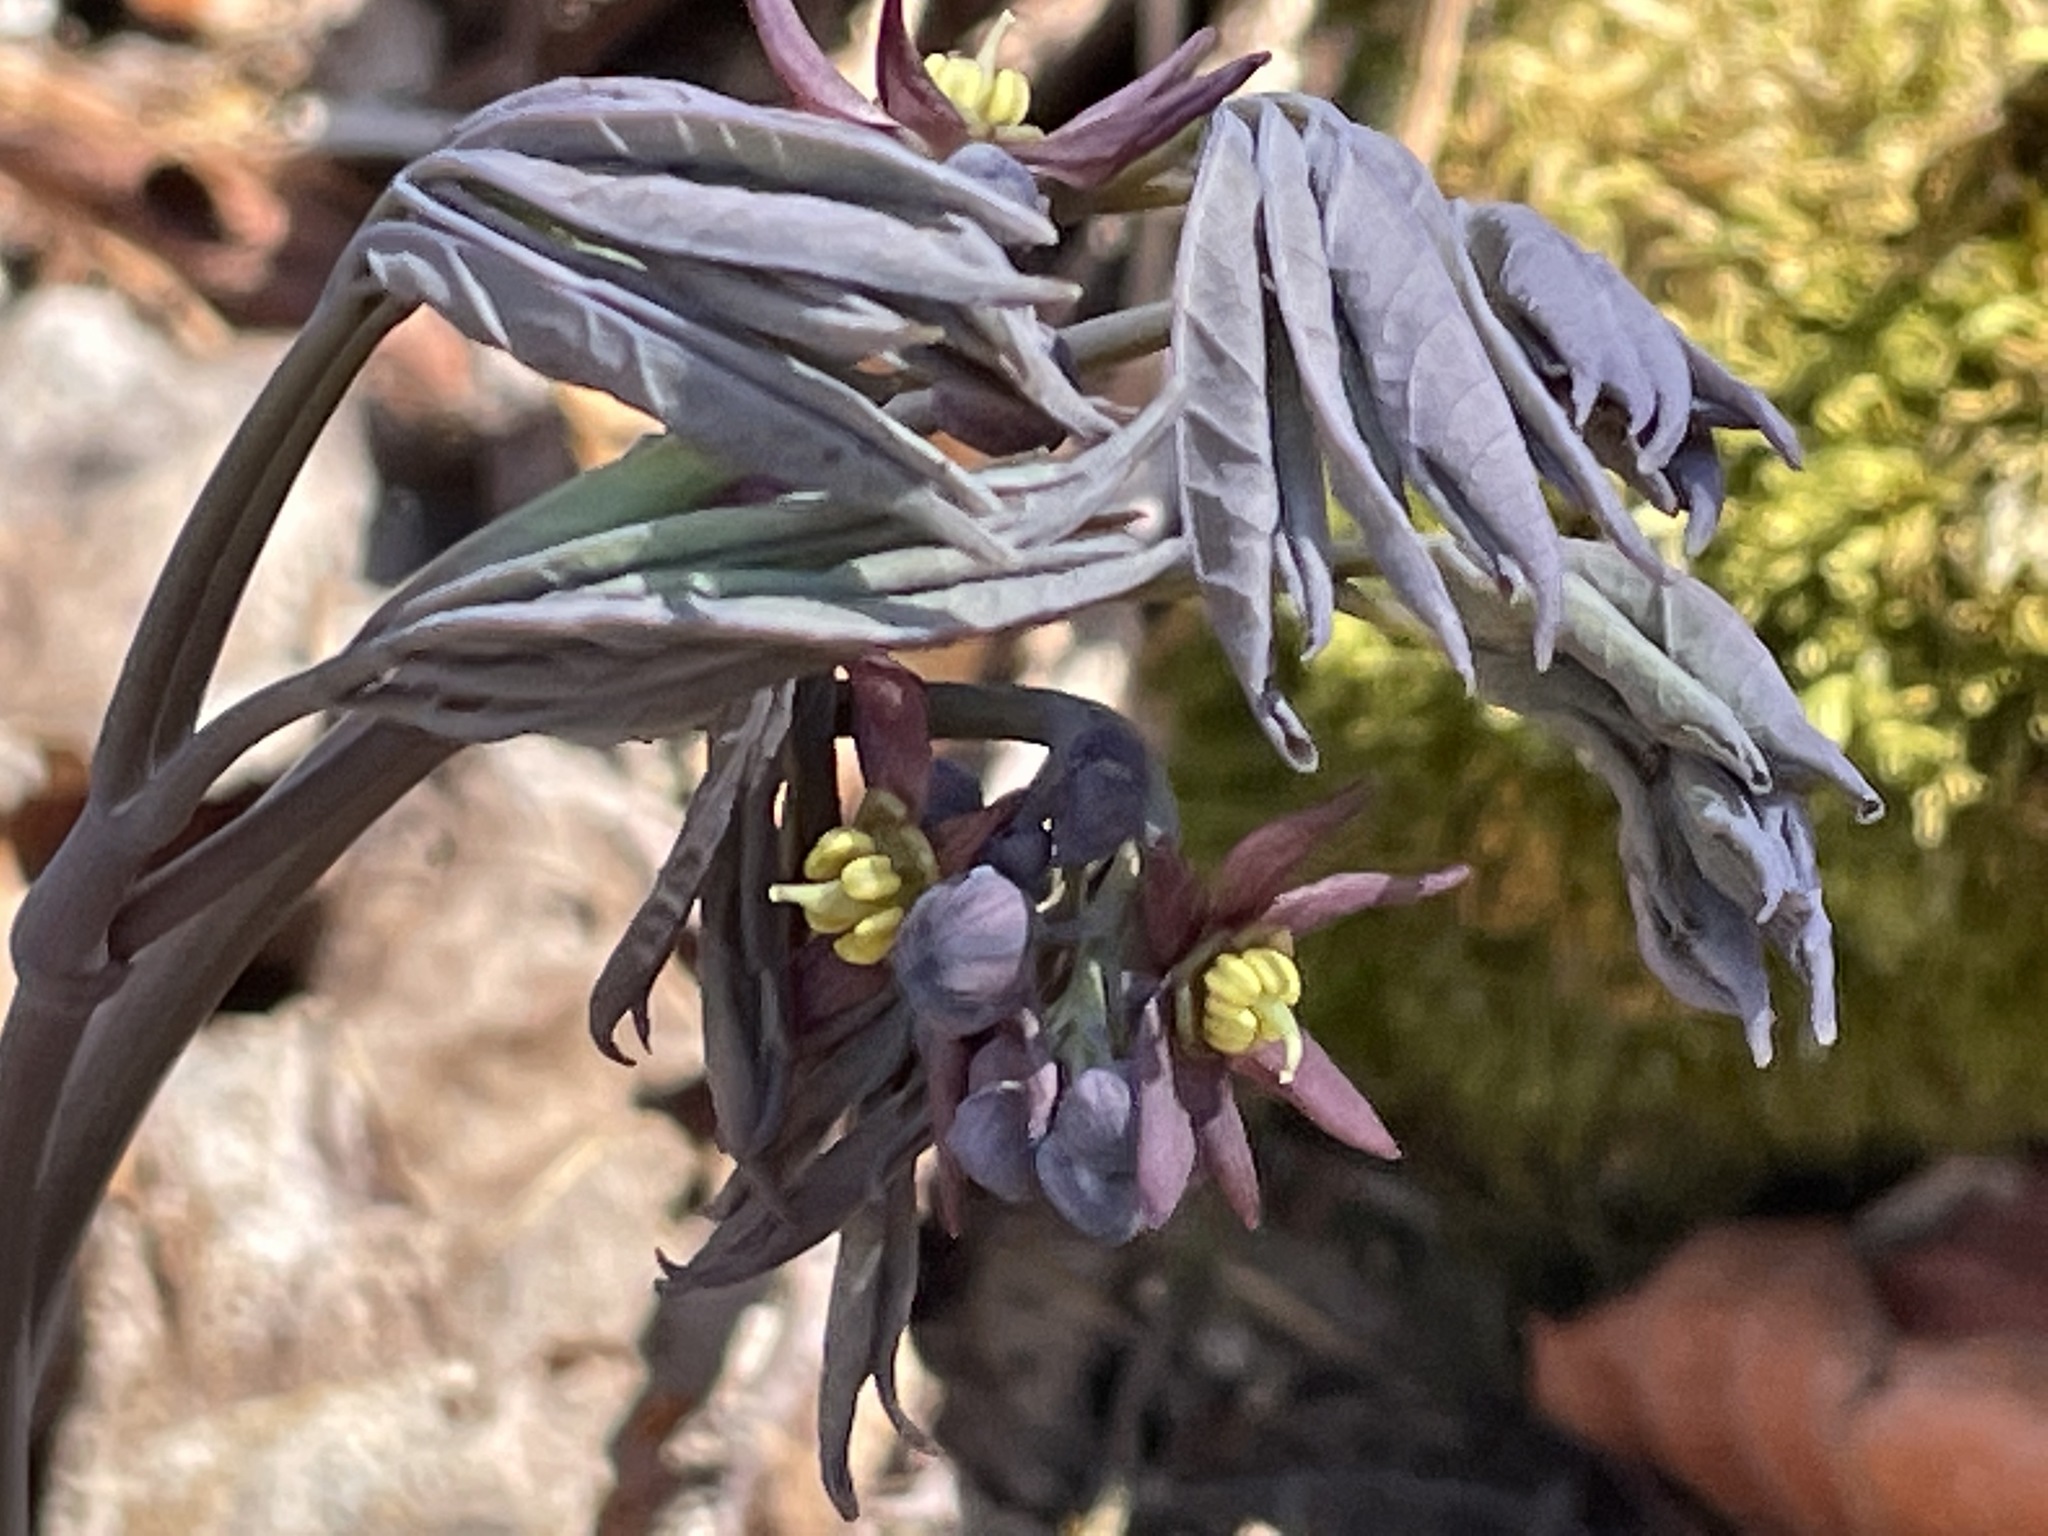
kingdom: Plantae
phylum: Tracheophyta
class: Magnoliopsida
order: Ranunculales
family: Berberidaceae
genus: Caulophyllum
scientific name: Caulophyllum giganteum
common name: Blue cohosh
